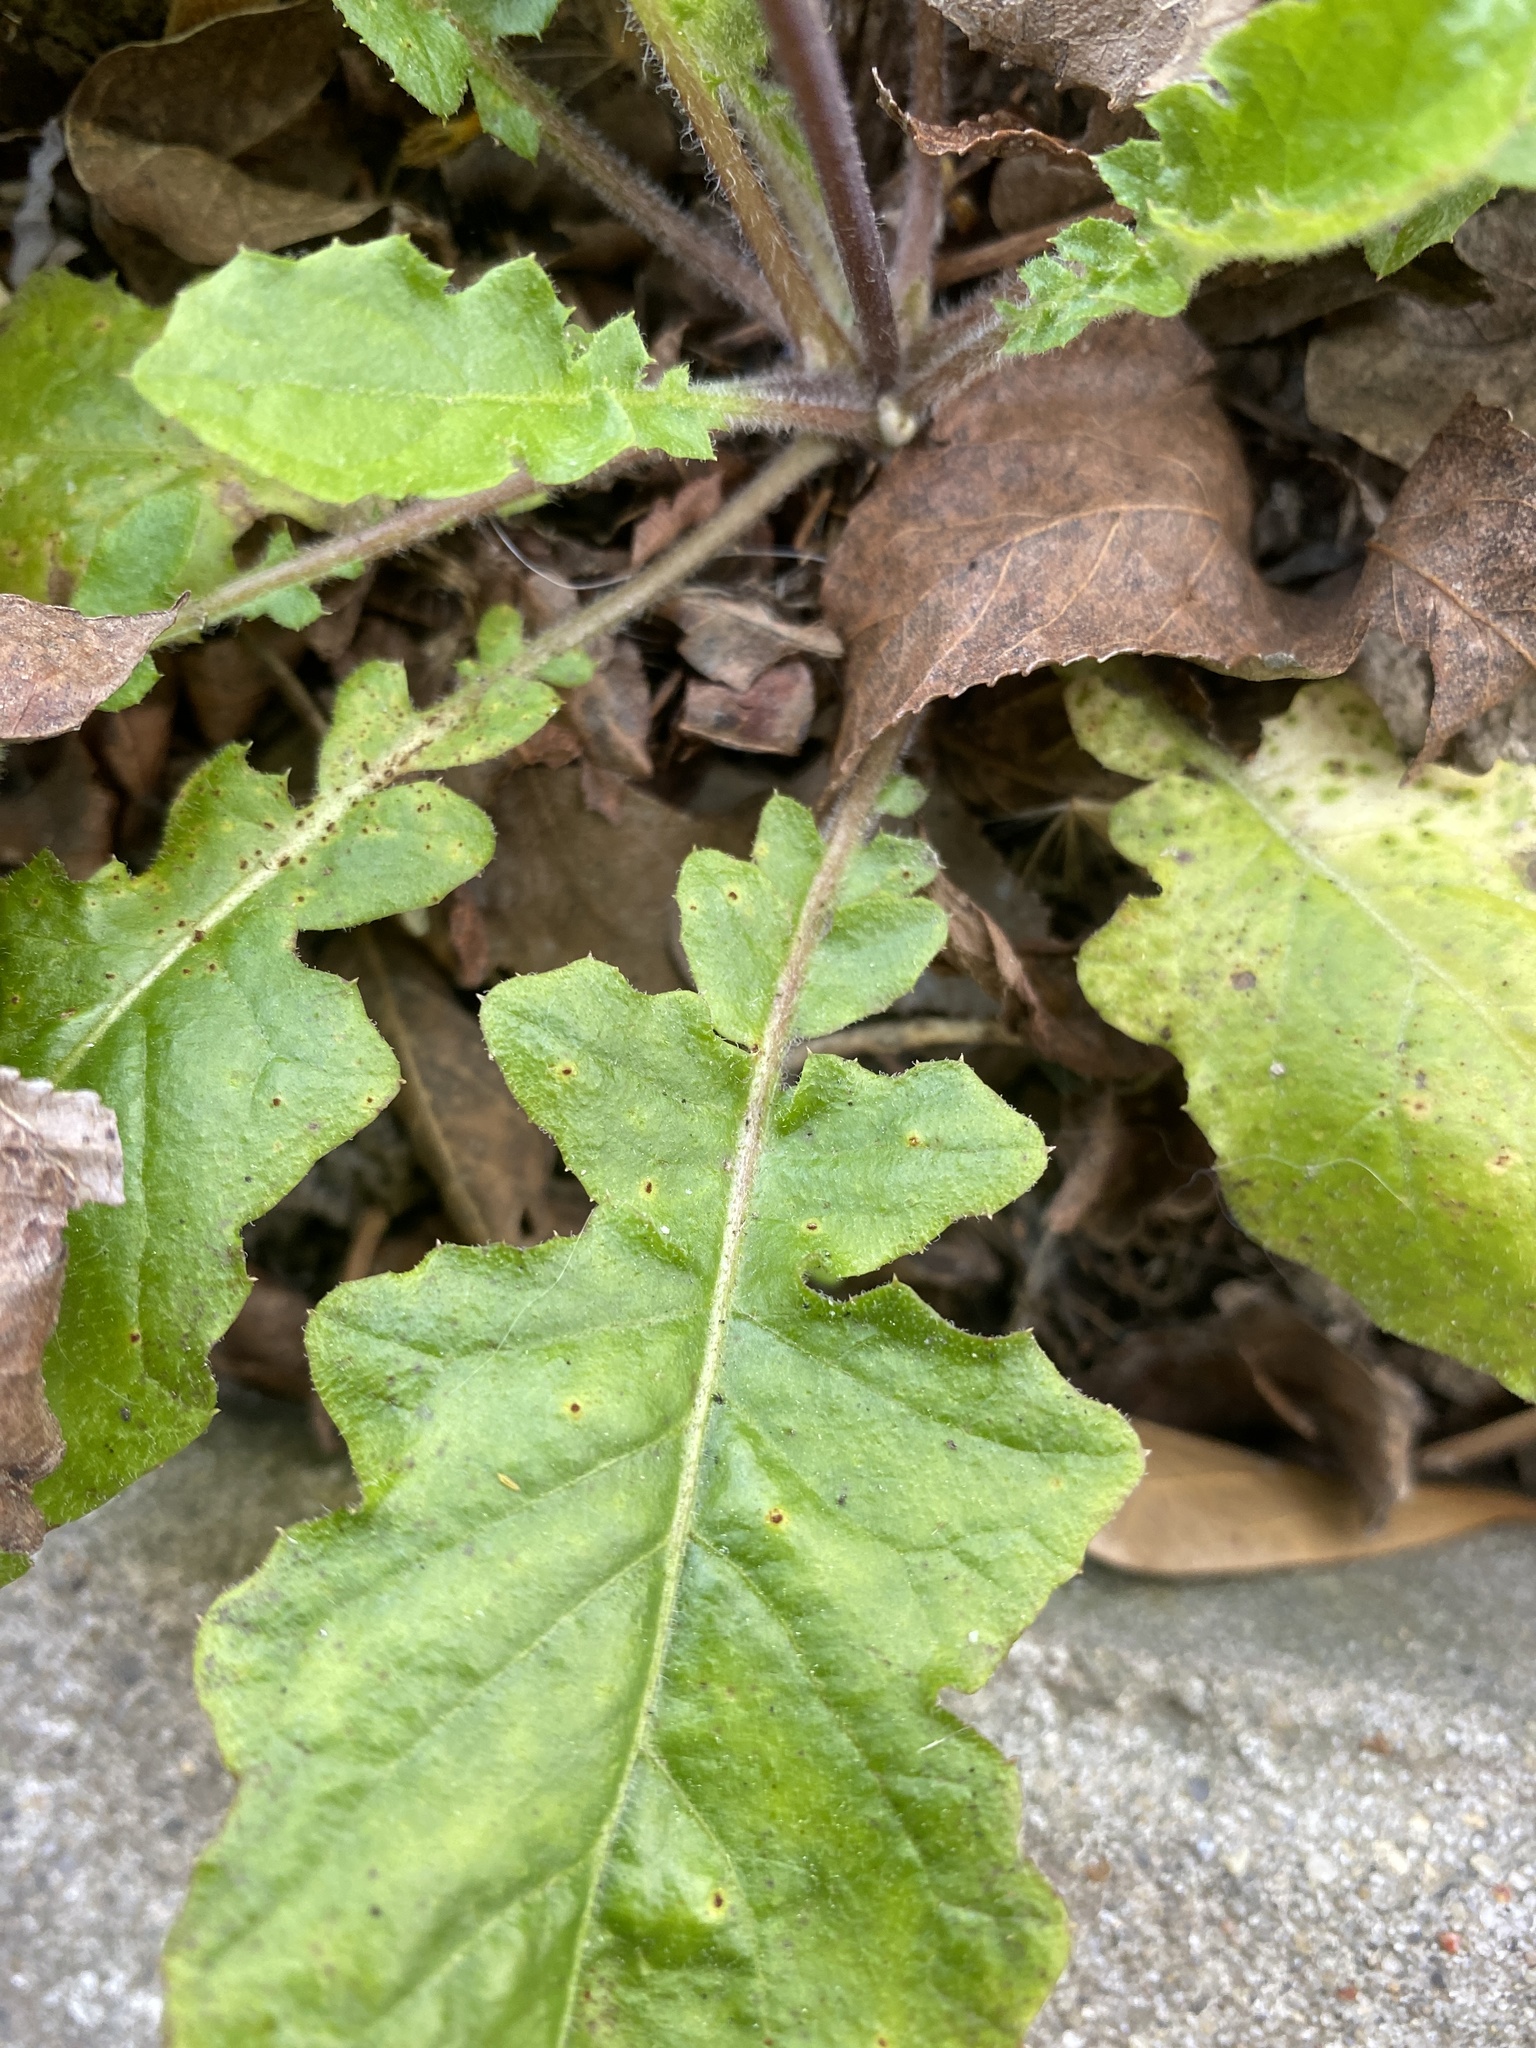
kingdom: Plantae
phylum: Tracheophyta
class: Magnoliopsida
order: Asterales
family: Asteraceae
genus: Youngia
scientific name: Youngia japonica
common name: Oriental false hawksbeard
